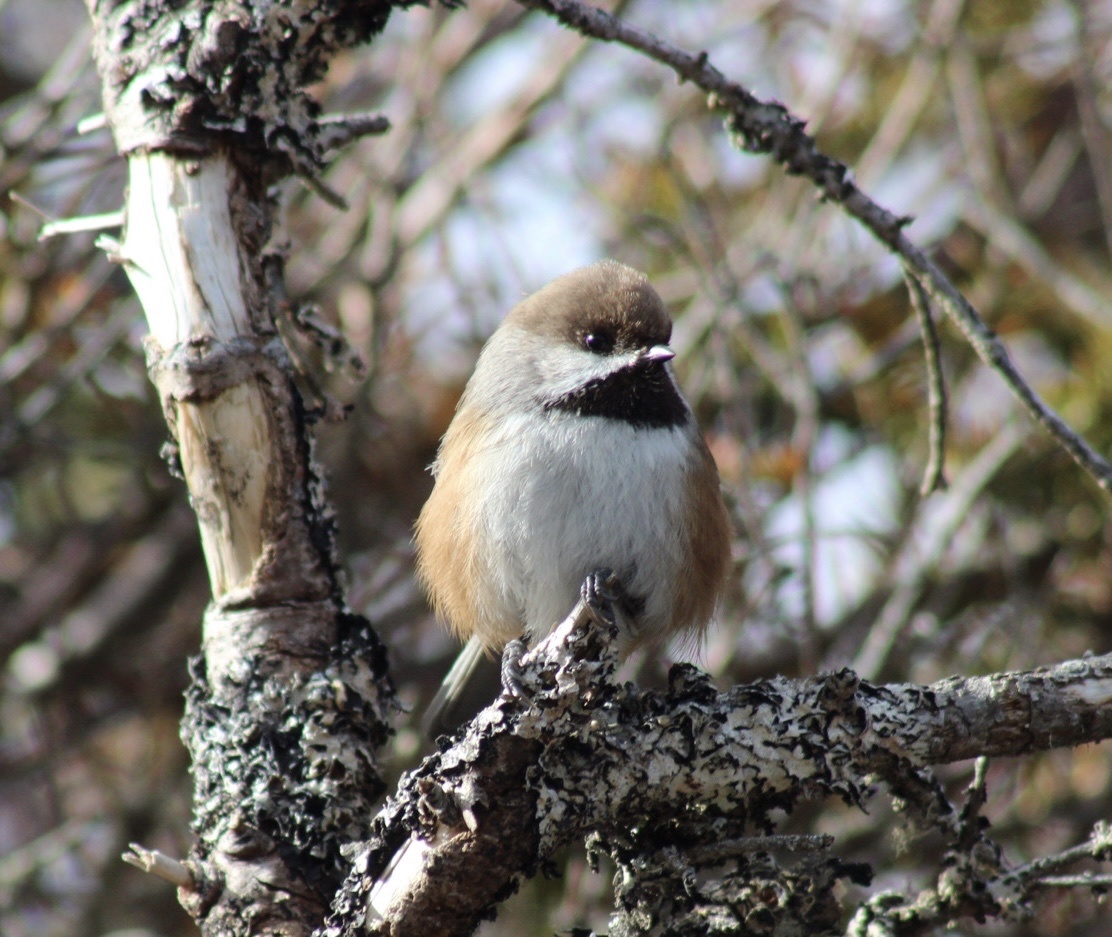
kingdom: Animalia
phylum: Chordata
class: Aves
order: Passeriformes
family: Paridae
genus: Poecile
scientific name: Poecile hudsonicus
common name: Boreal chickadee
